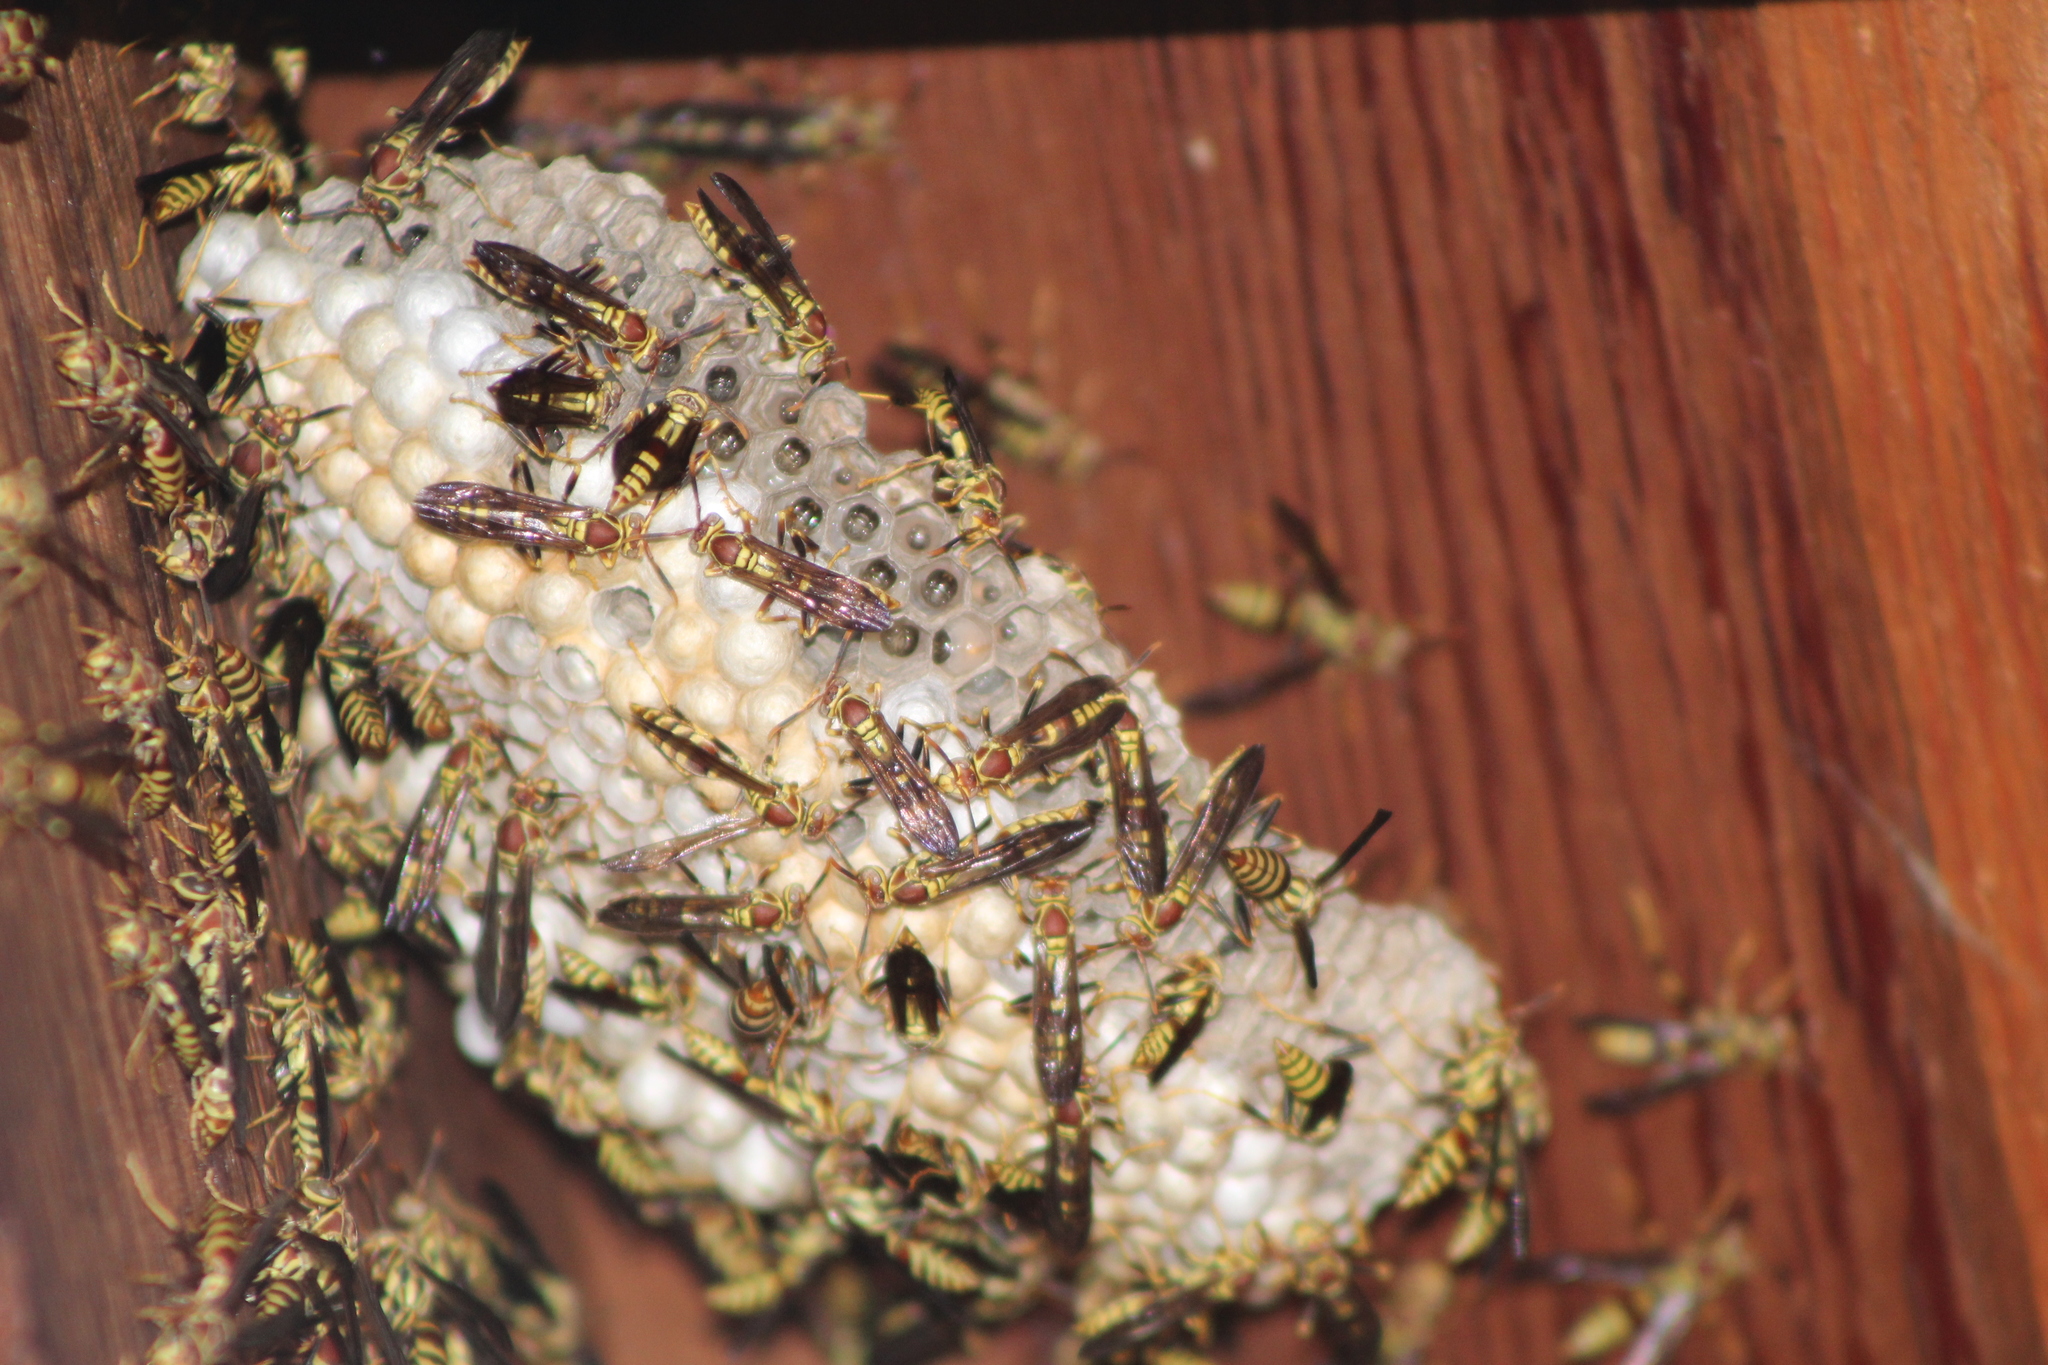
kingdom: Animalia
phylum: Arthropoda
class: Insecta
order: Hymenoptera
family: Eumenidae
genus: Polistes
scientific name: Polistes exclamans
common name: Paper wasp
